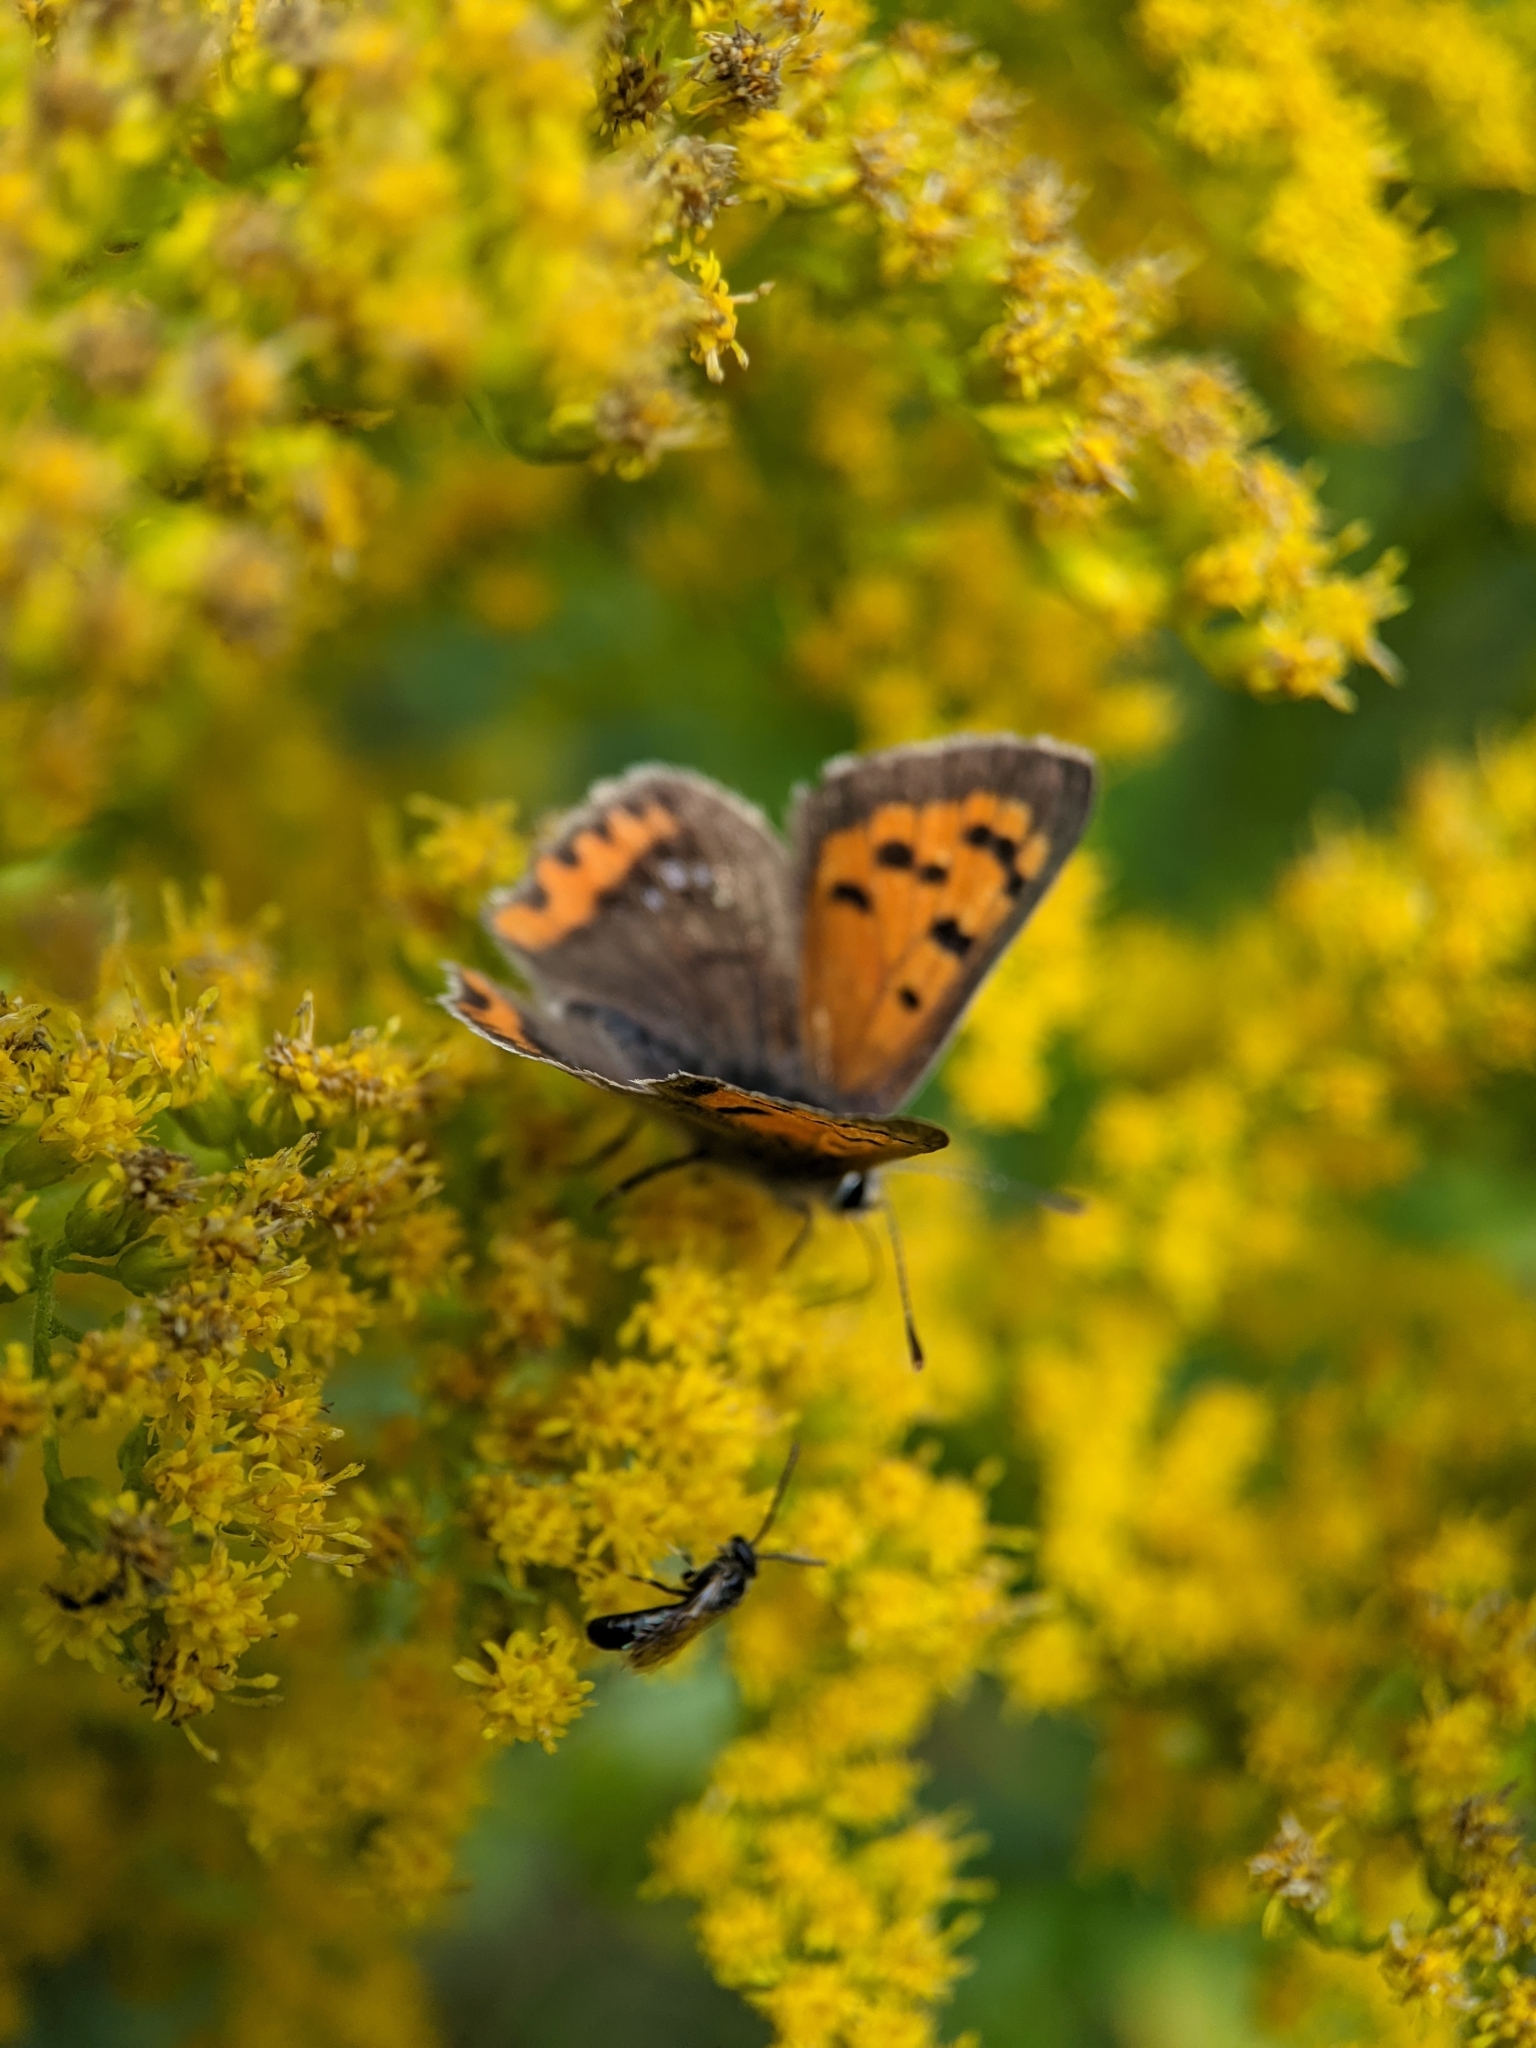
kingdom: Animalia
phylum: Arthropoda
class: Insecta
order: Lepidoptera
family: Lycaenidae
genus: Lycaena
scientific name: Lycaena phlaeas
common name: Small copper
